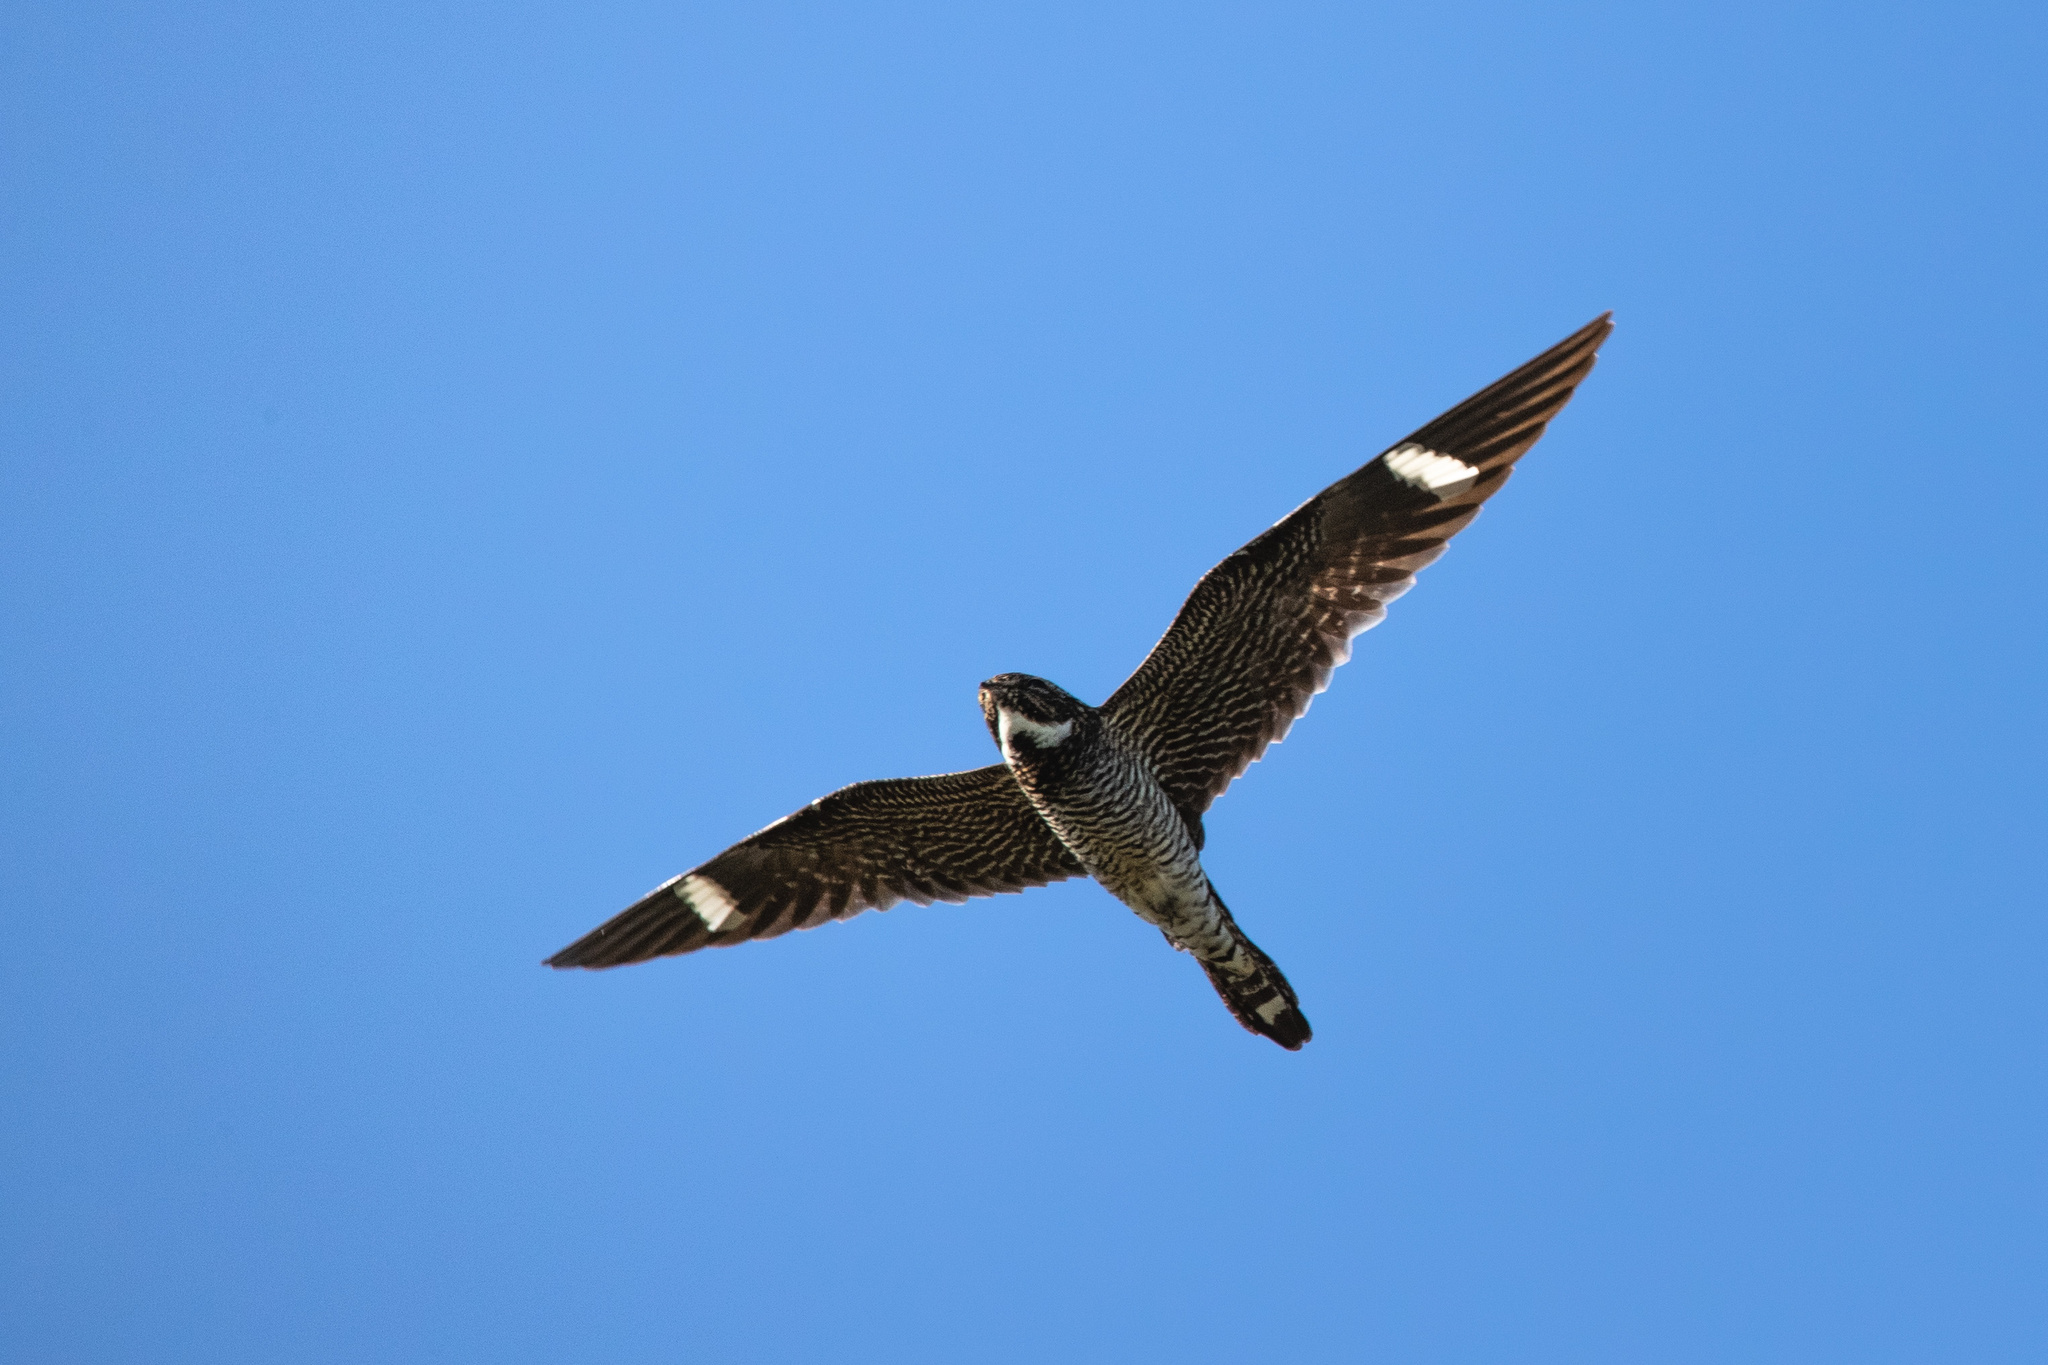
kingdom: Animalia
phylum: Chordata
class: Aves
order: Caprimulgiformes
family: Caprimulgidae
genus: Chordeiles
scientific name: Chordeiles minor
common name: Common nighthawk
